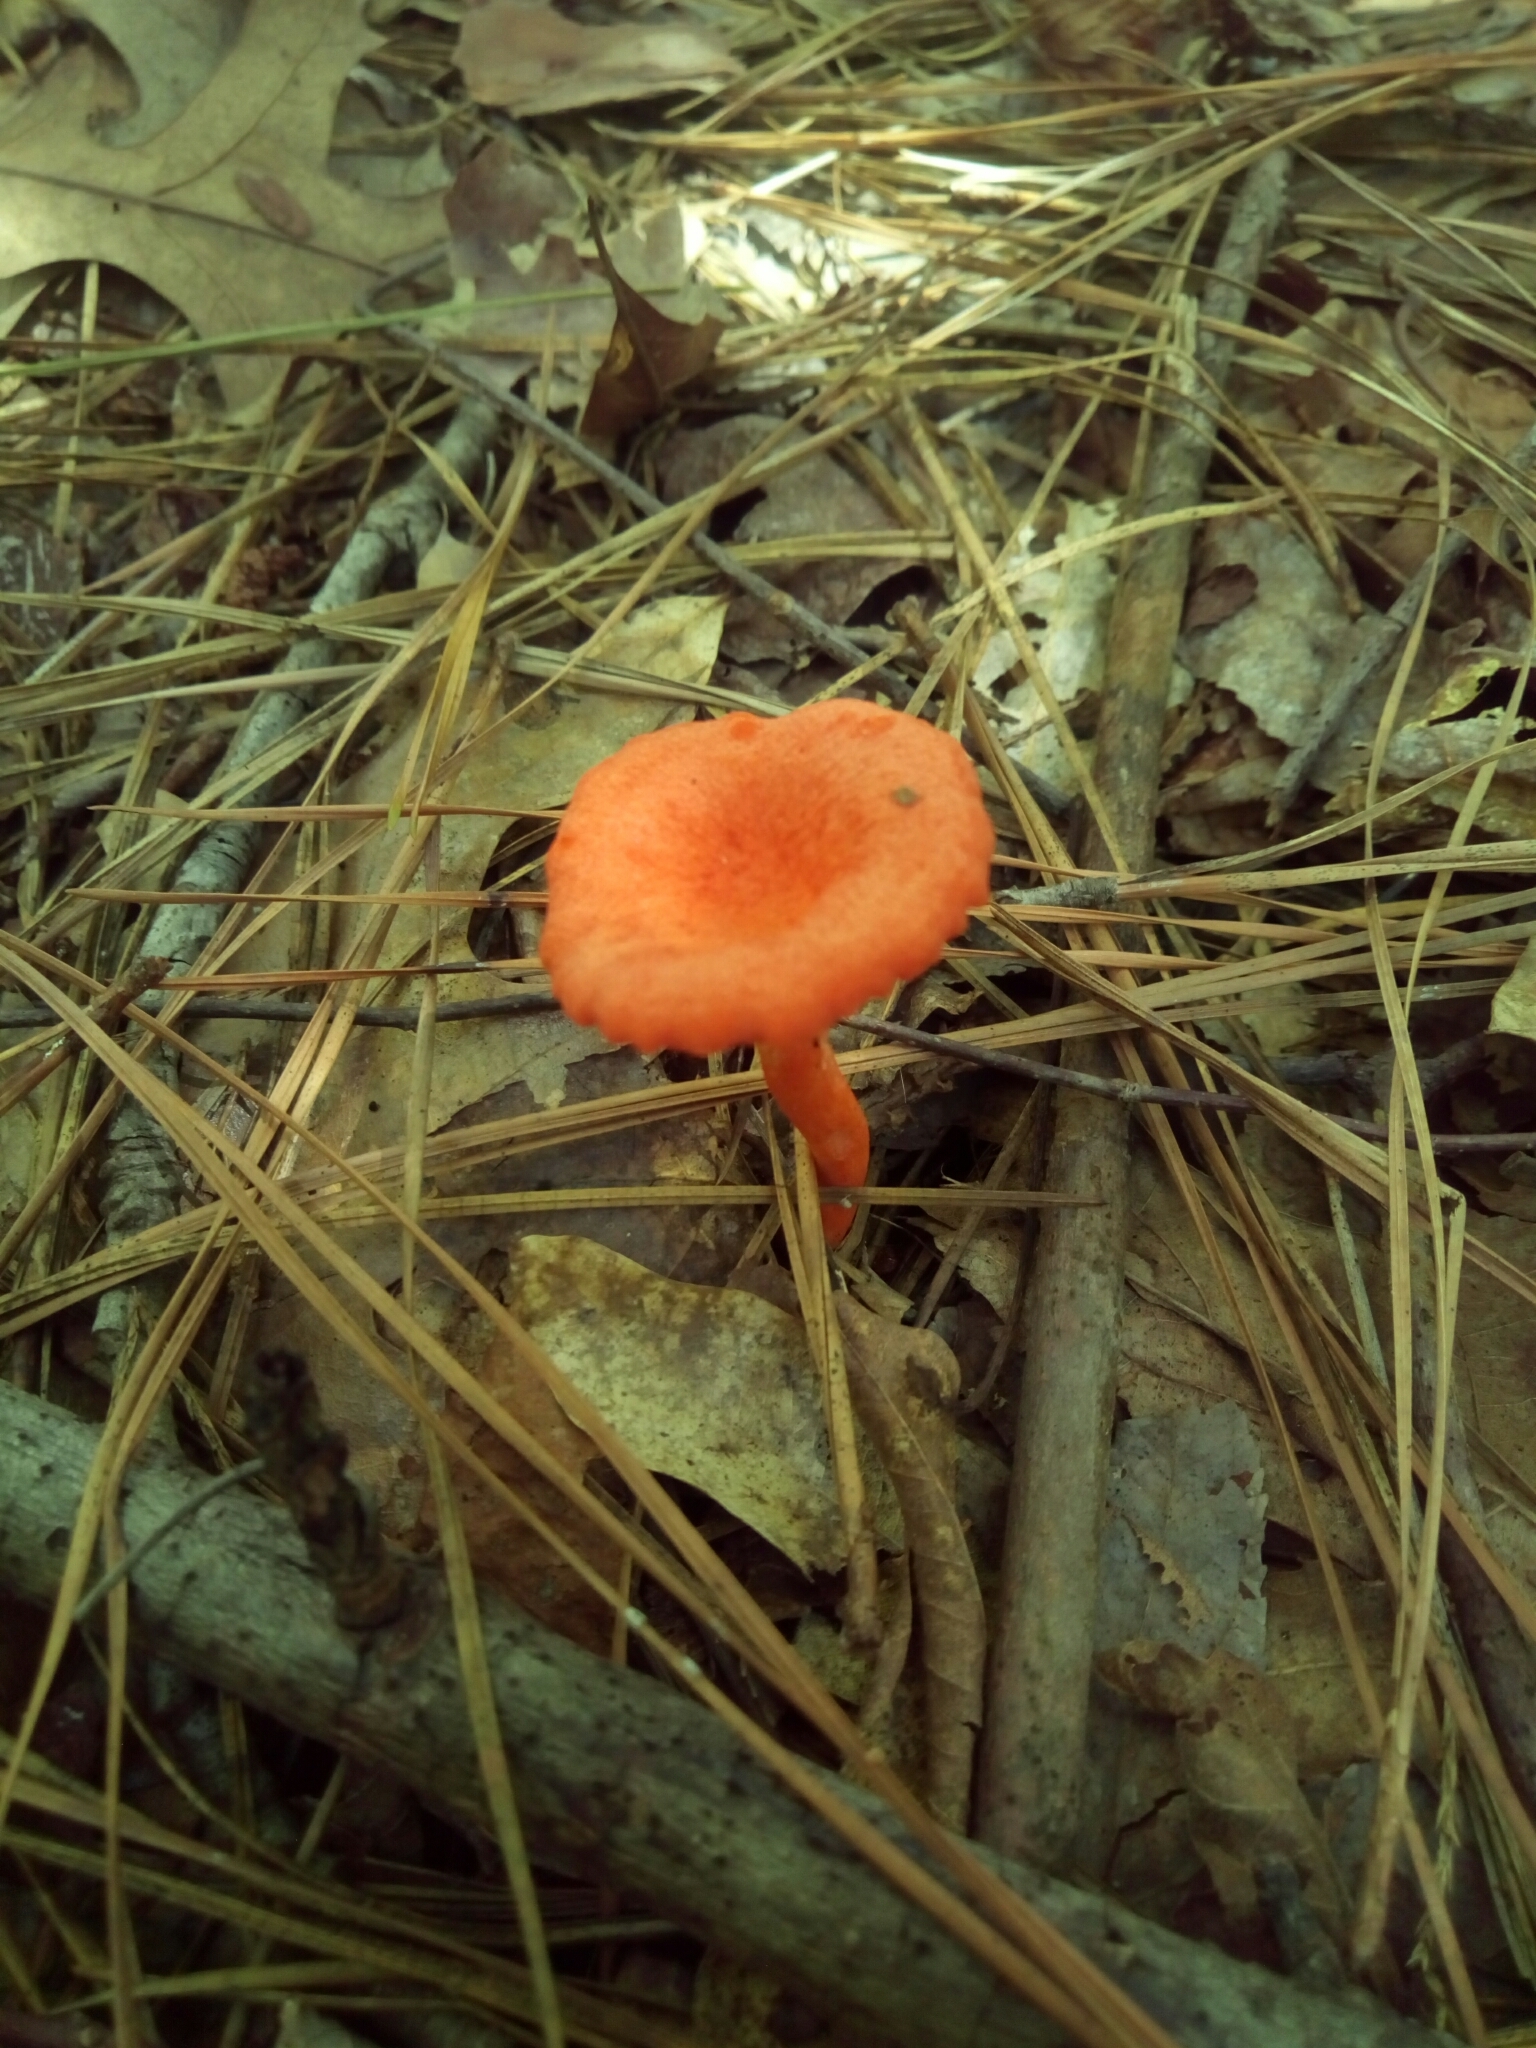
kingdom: Fungi
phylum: Basidiomycota
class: Agaricomycetes
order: Cantharellales
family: Hydnaceae
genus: Cantharellus
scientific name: Cantharellus cinnabarinus
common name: Cinnabar chanterelle
